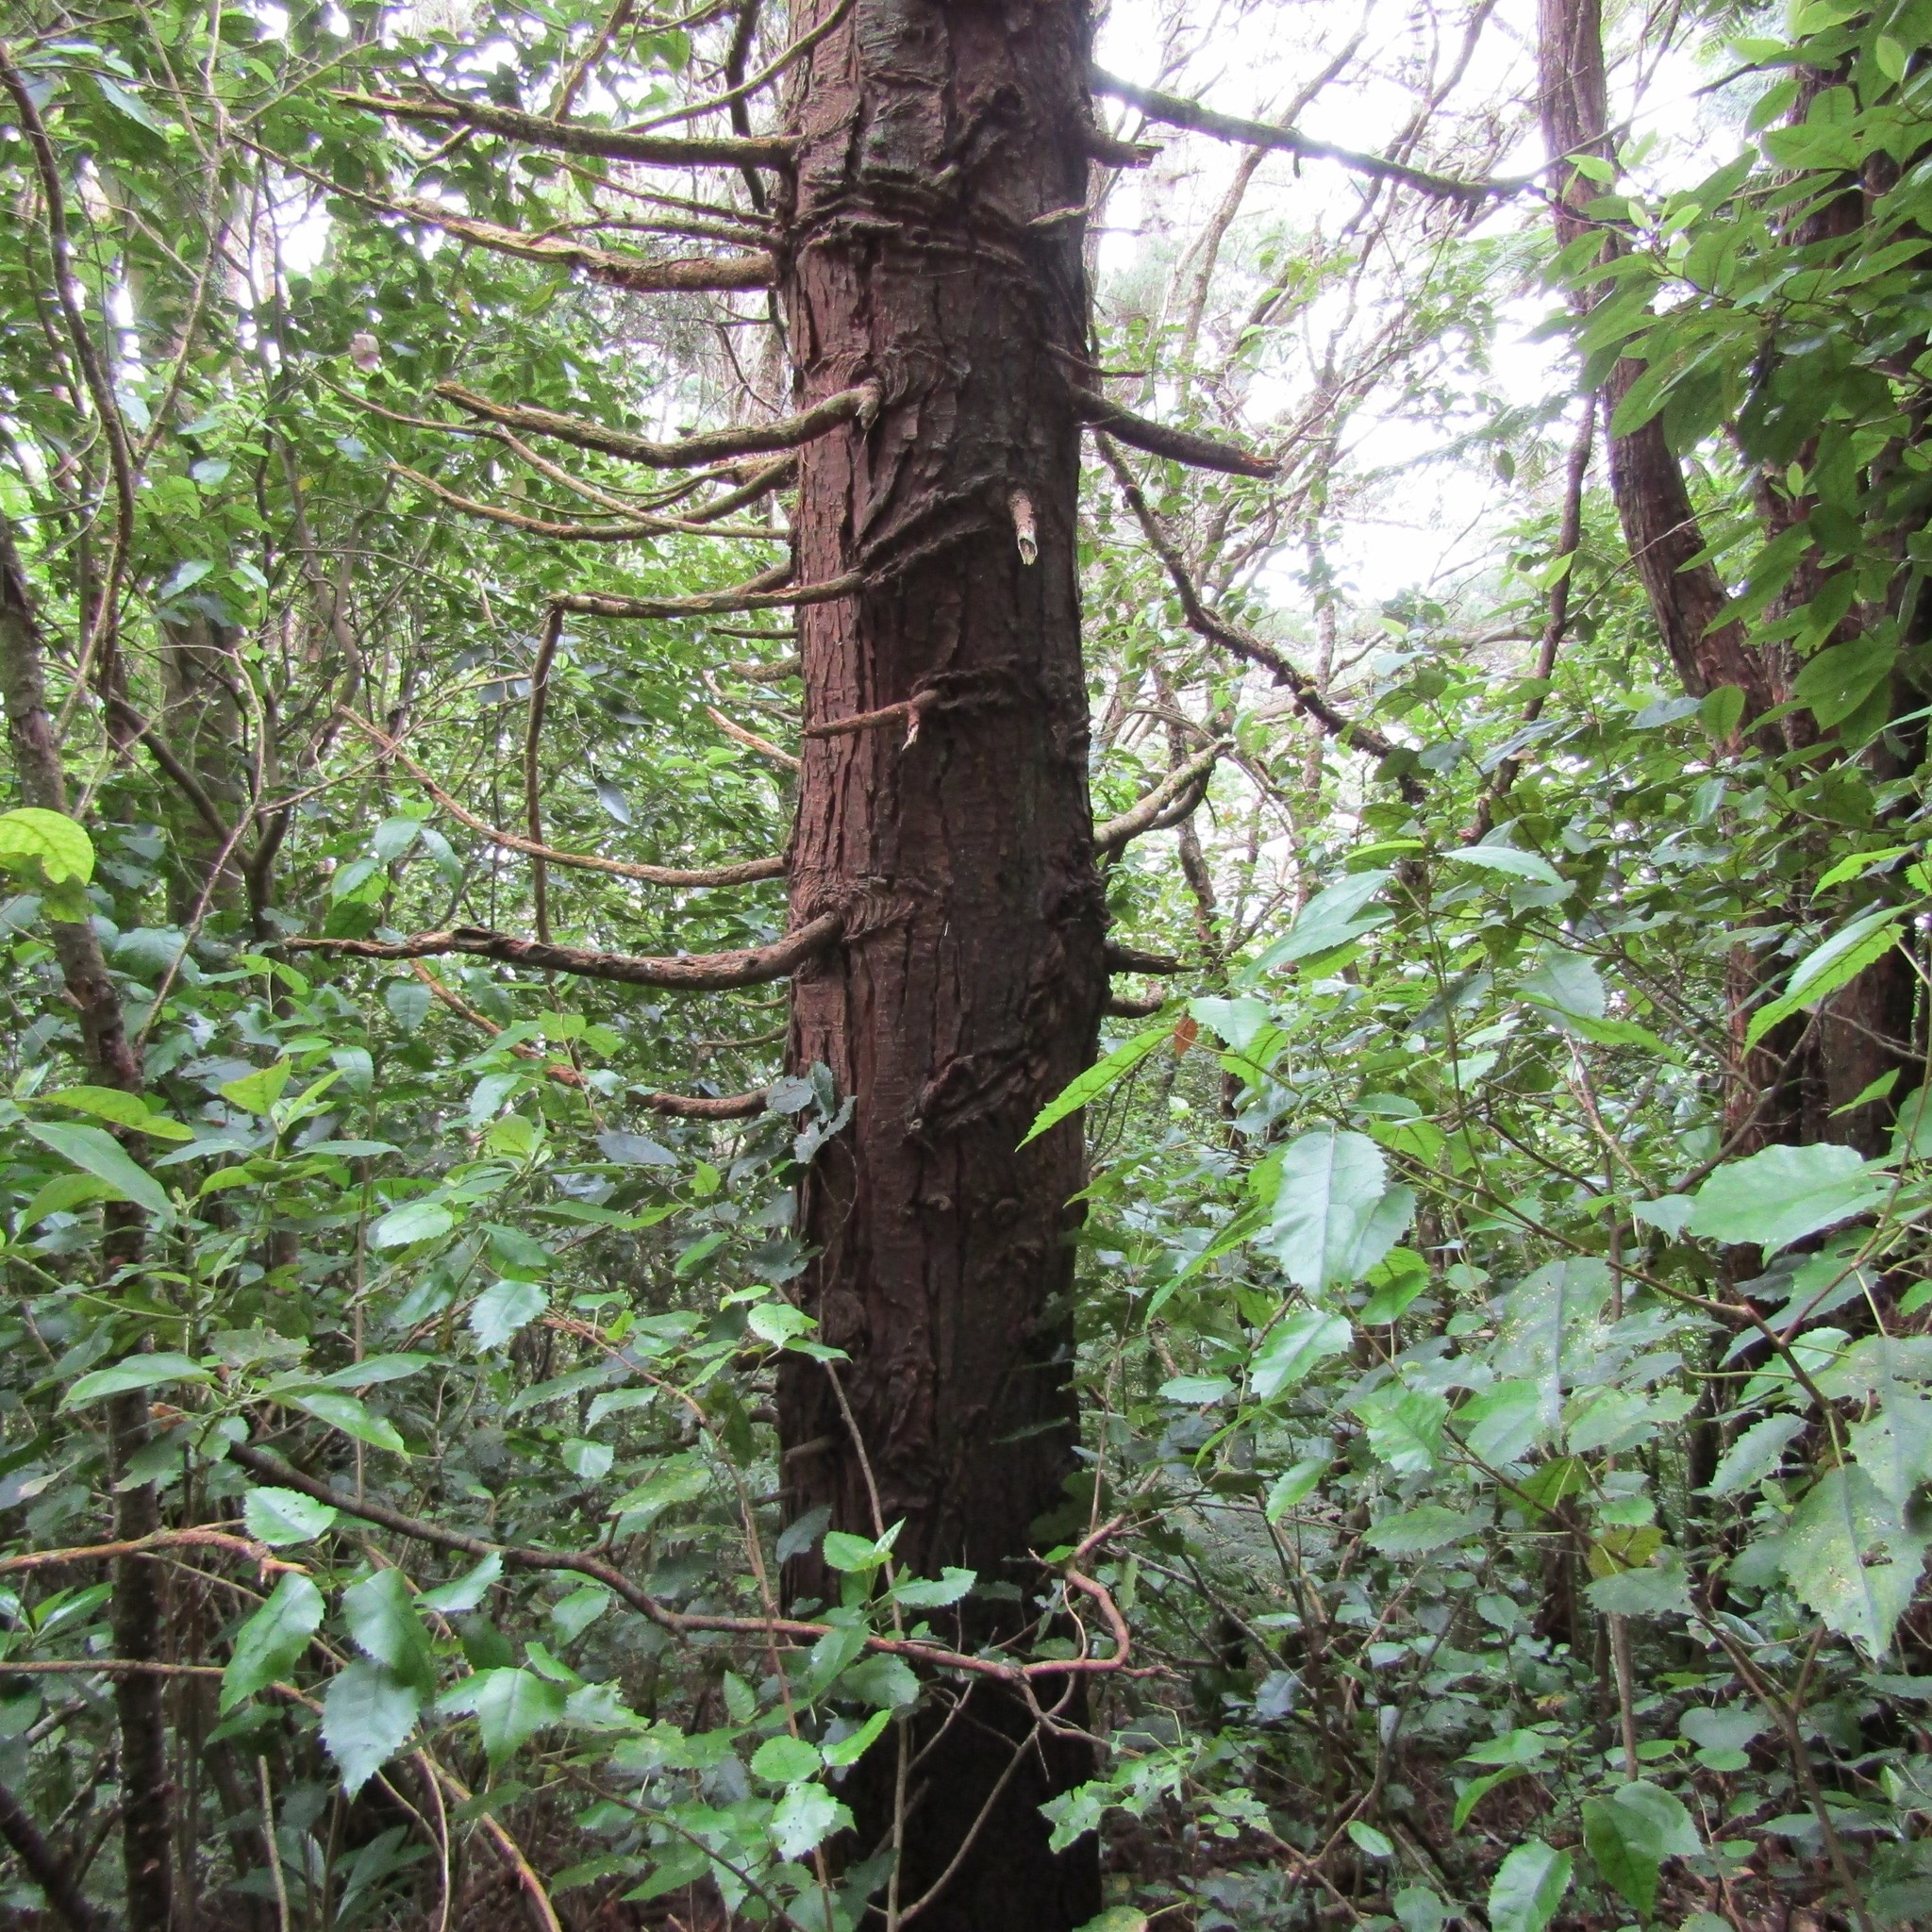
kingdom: Plantae
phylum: Tracheophyta
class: Pinopsida
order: Pinales
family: Cupressaceae
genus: Chamaecyparis
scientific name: Chamaecyparis lawsoniana
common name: Lawson's cypress
